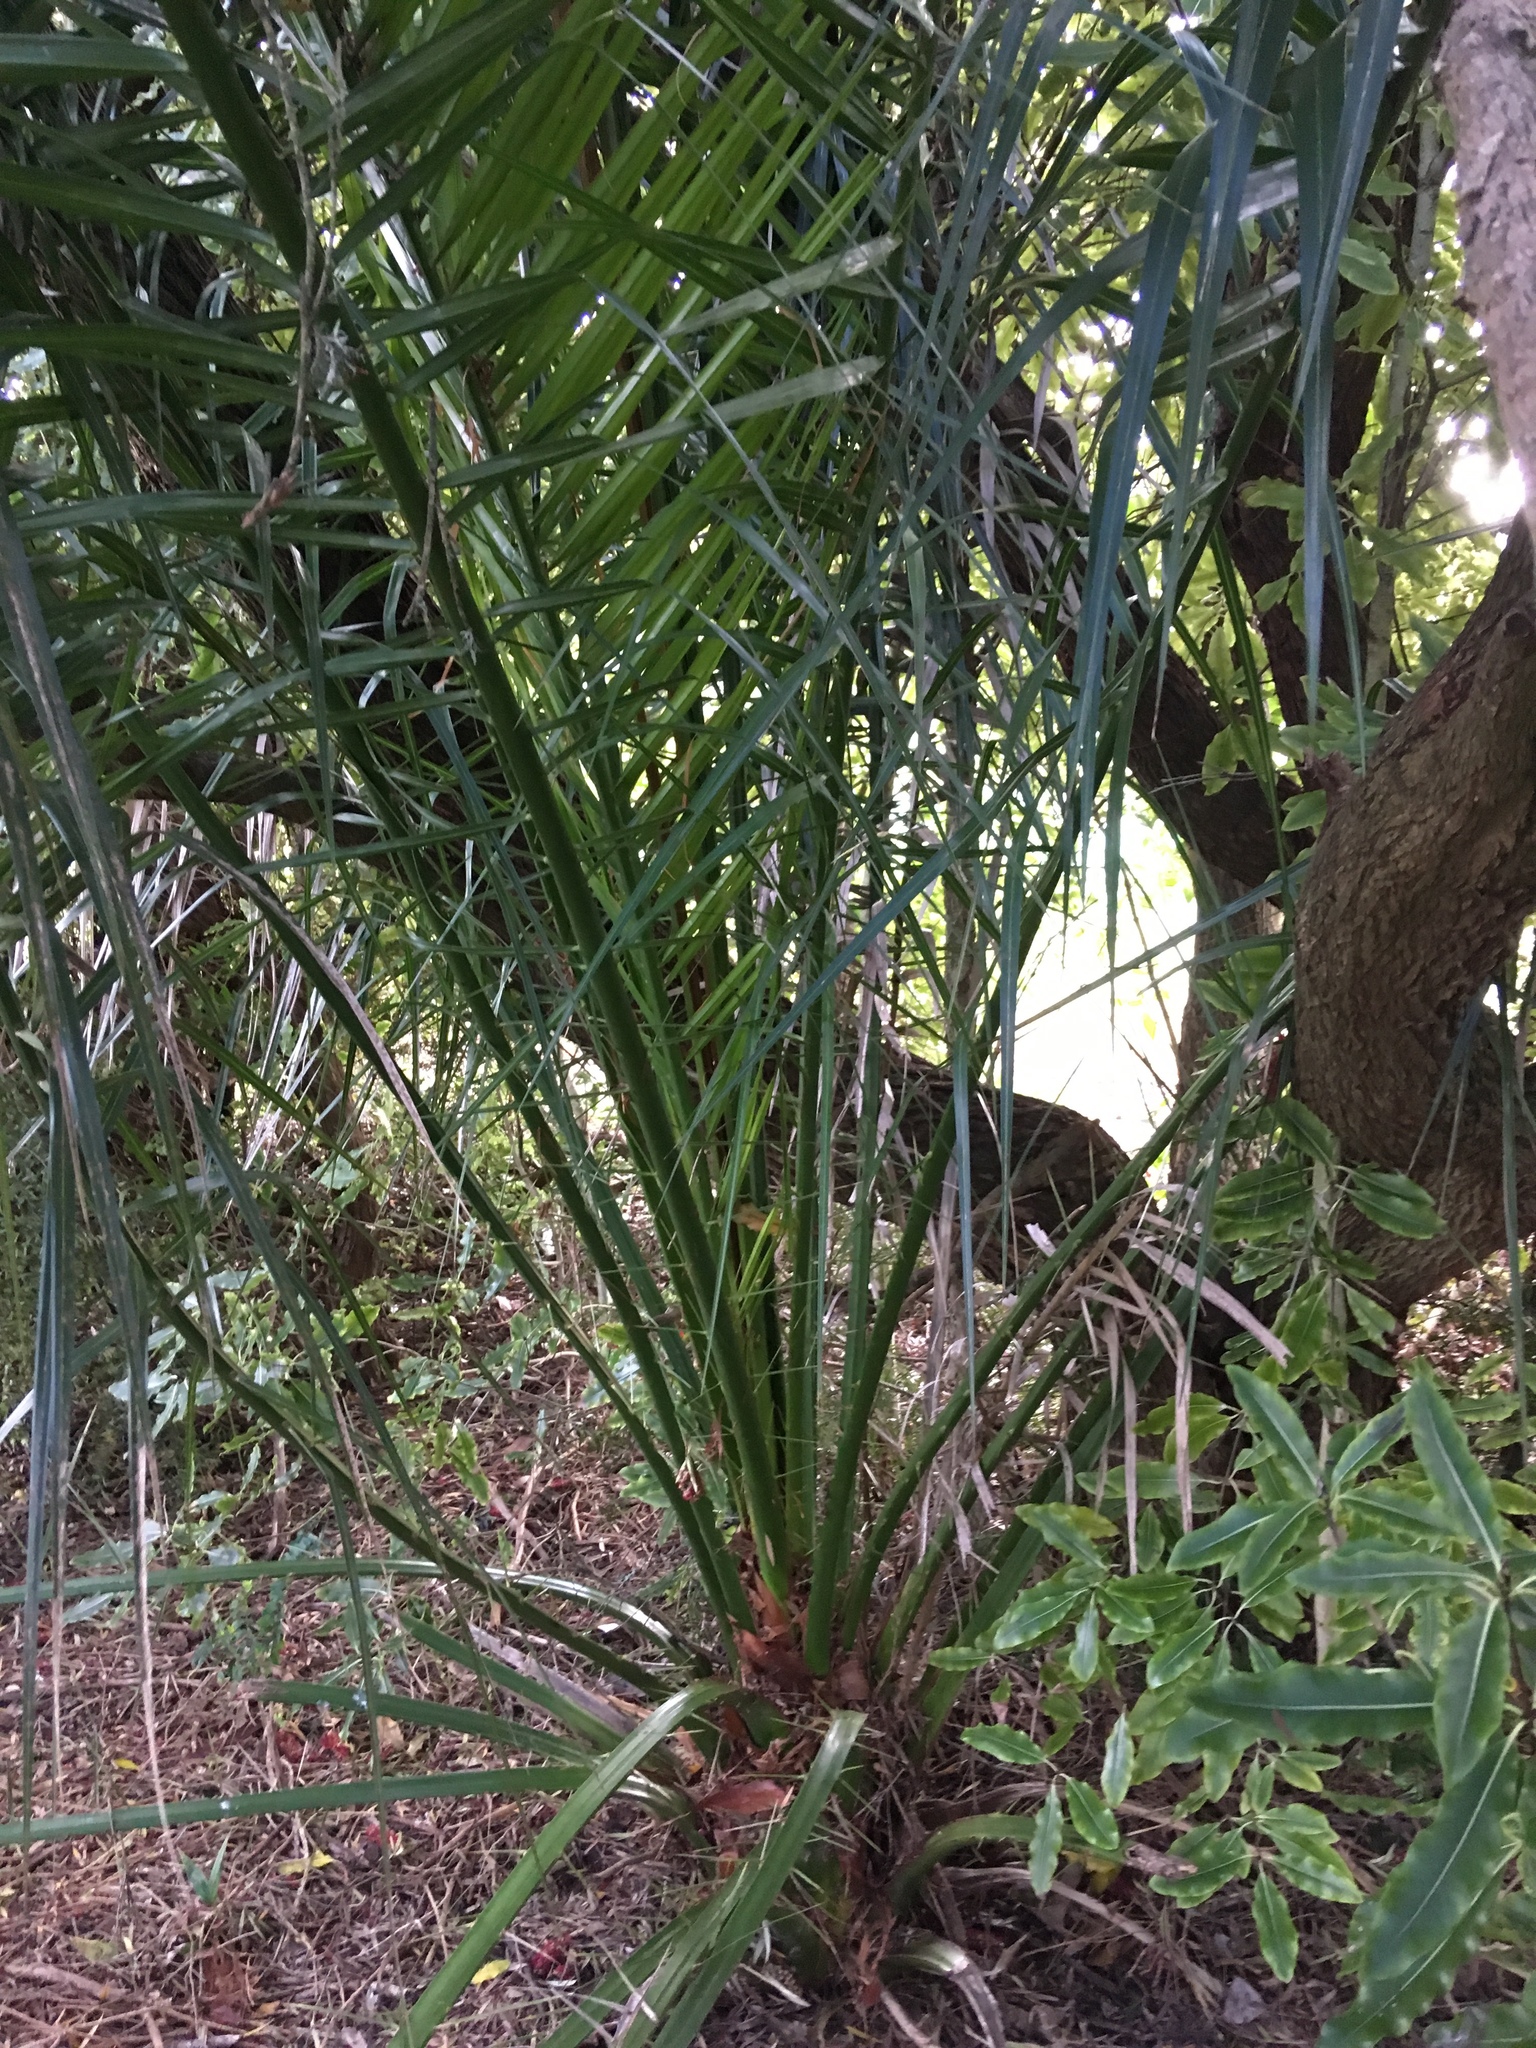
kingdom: Plantae
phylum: Tracheophyta
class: Liliopsida
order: Arecales
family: Arecaceae
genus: Phoenix
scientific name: Phoenix canariensis
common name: Canary island date palm
